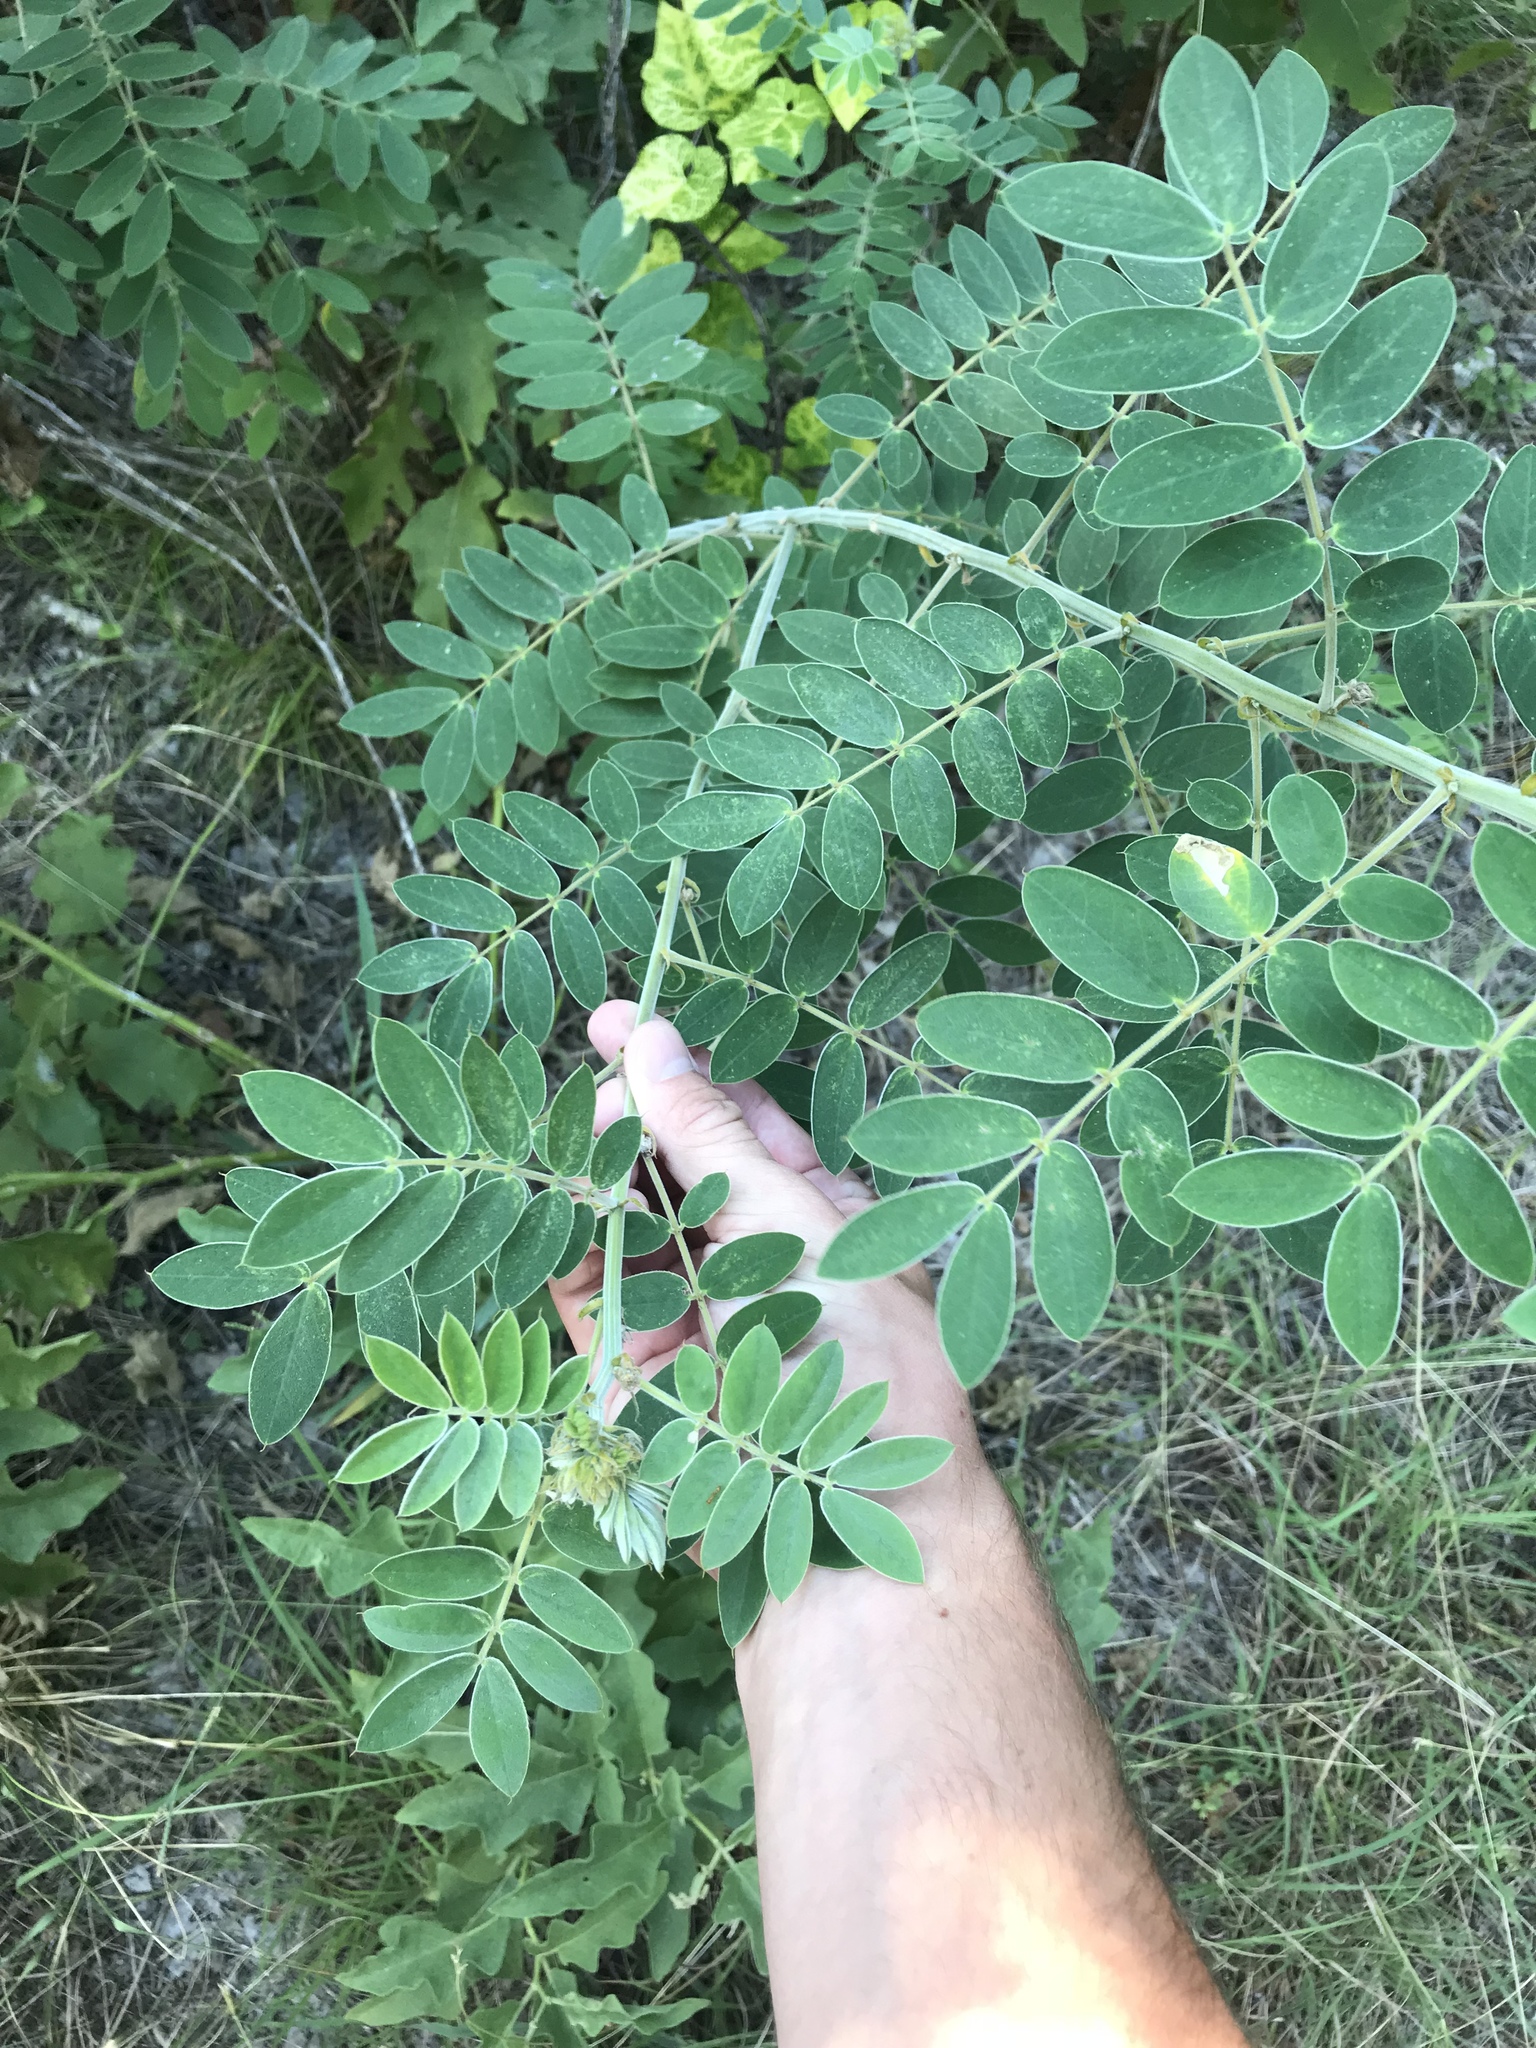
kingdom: Plantae
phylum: Tracheophyta
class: Magnoliopsida
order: Fabales
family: Fabaceae
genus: Senna
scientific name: Senna lindheimeriana
